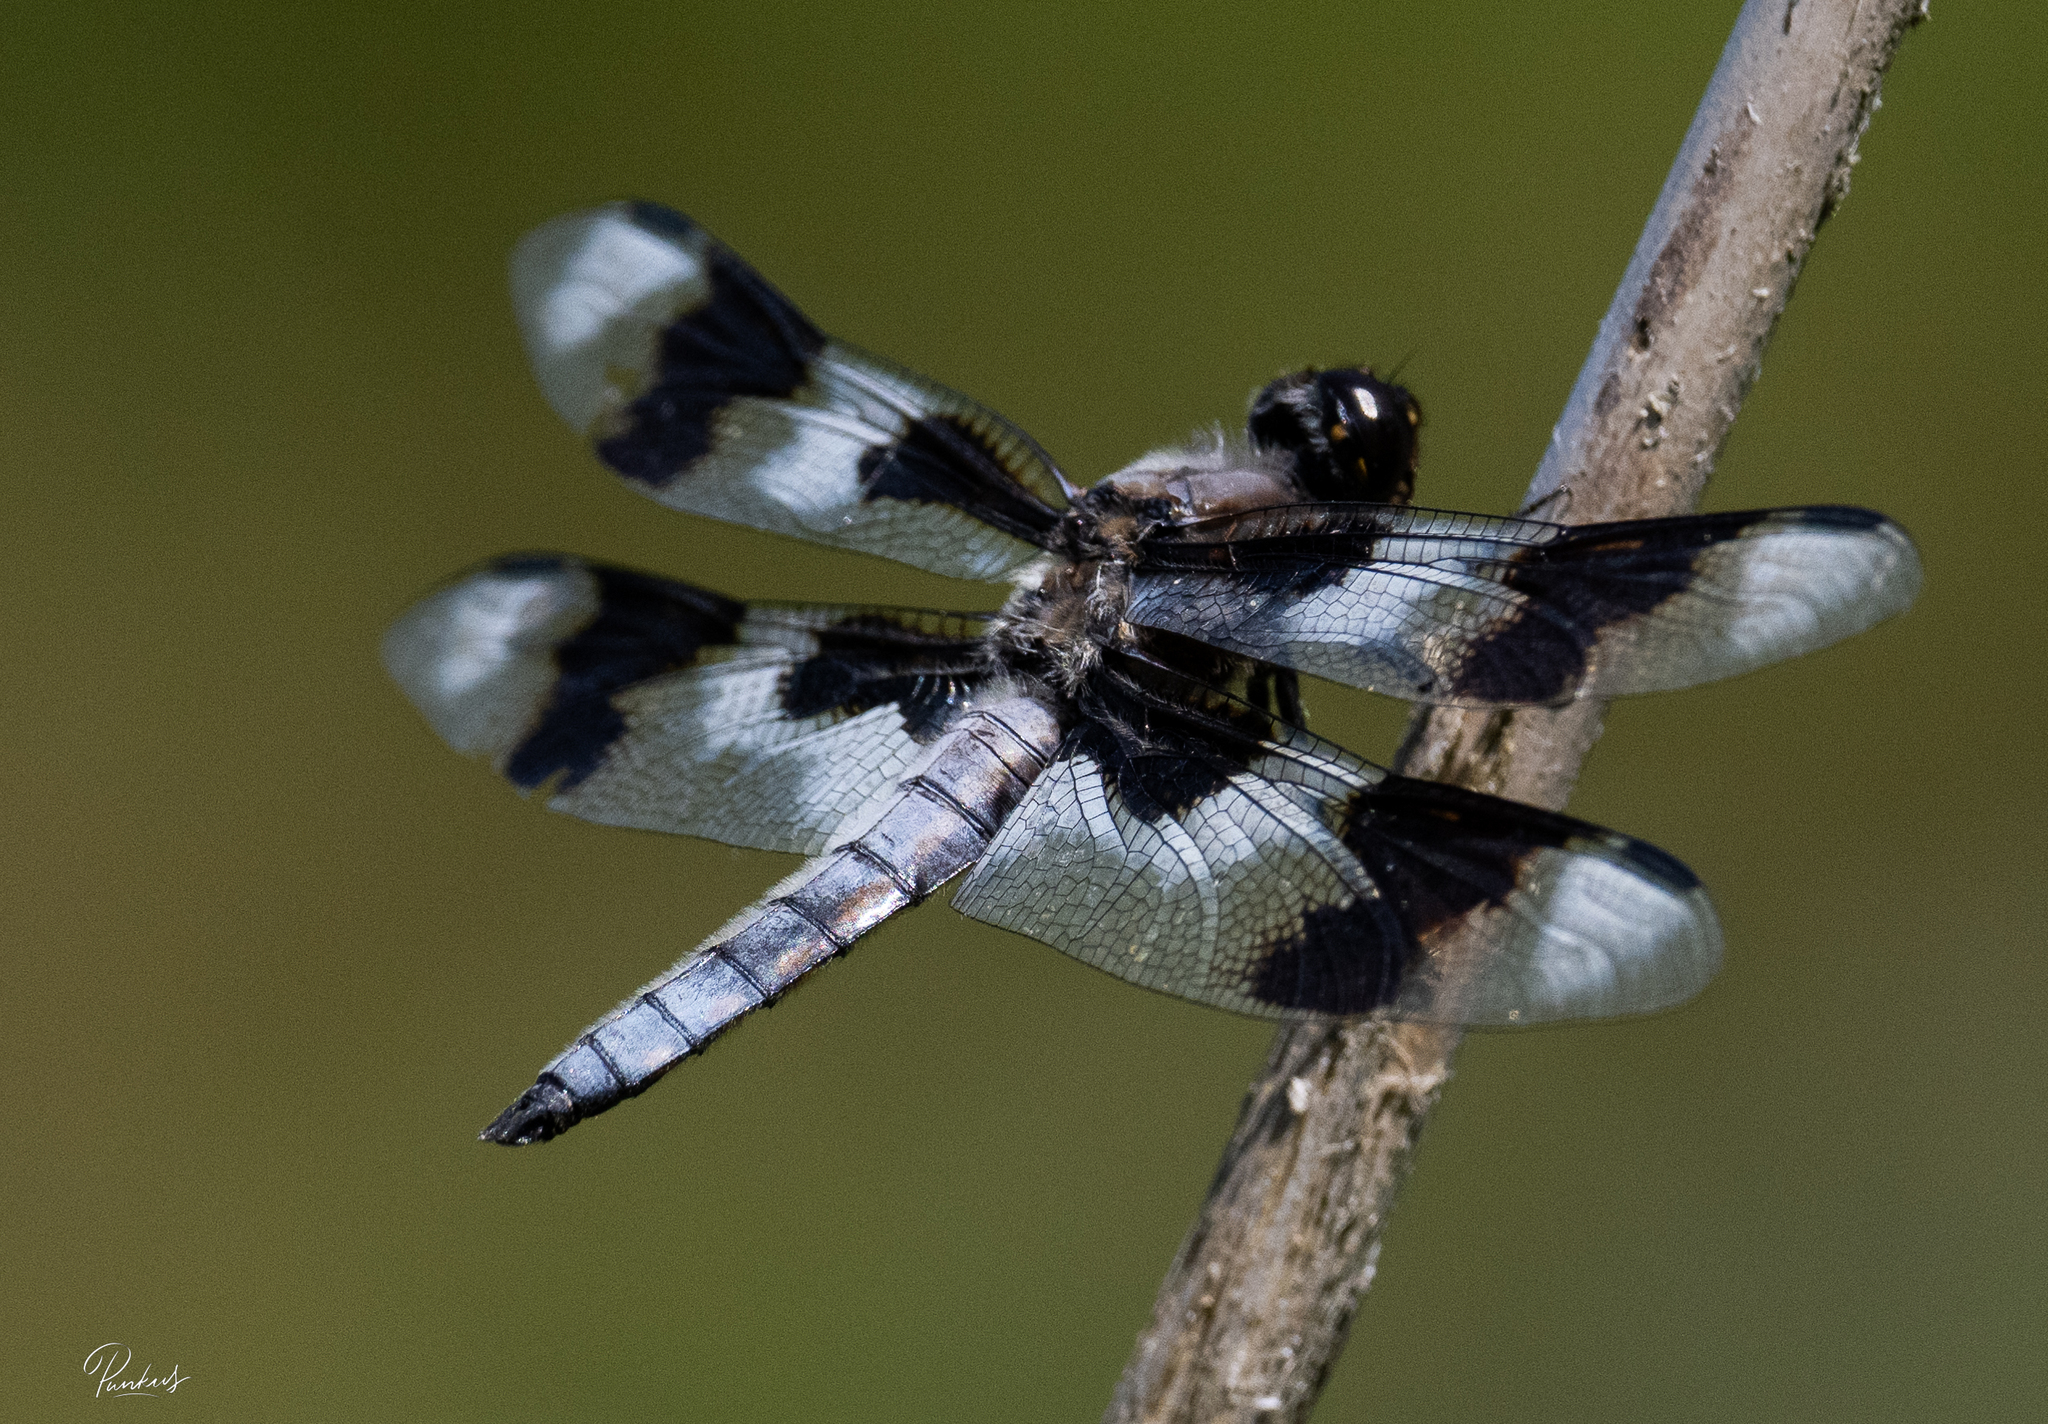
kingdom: Animalia
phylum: Arthropoda
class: Insecta
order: Odonata
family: Libellulidae
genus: Libellula
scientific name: Libellula forensis
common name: Eight-spotted skimmer
